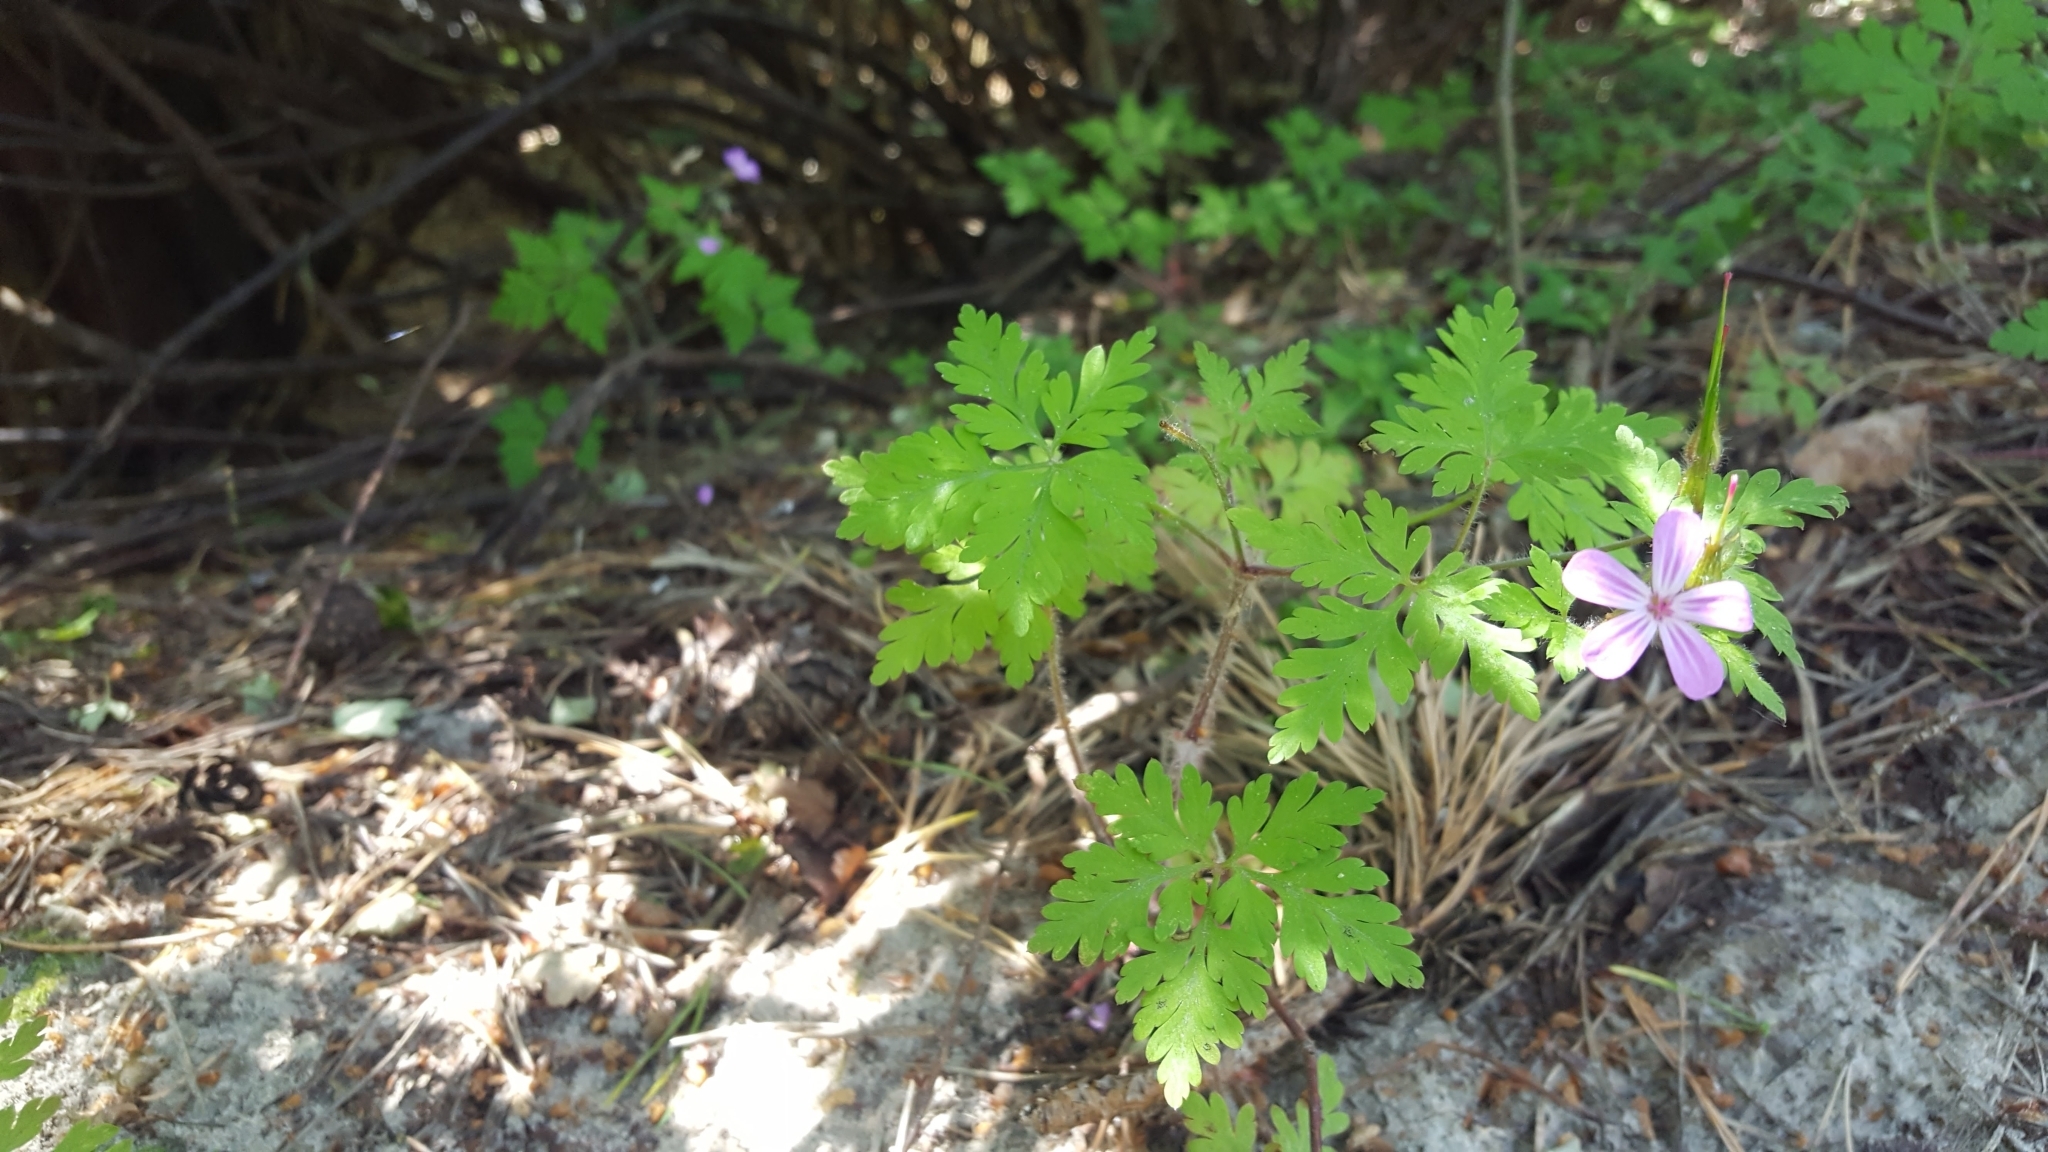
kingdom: Plantae
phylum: Tracheophyta
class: Magnoliopsida
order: Geraniales
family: Geraniaceae
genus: Geranium
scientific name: Geranium robertianum
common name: Herb-robert
